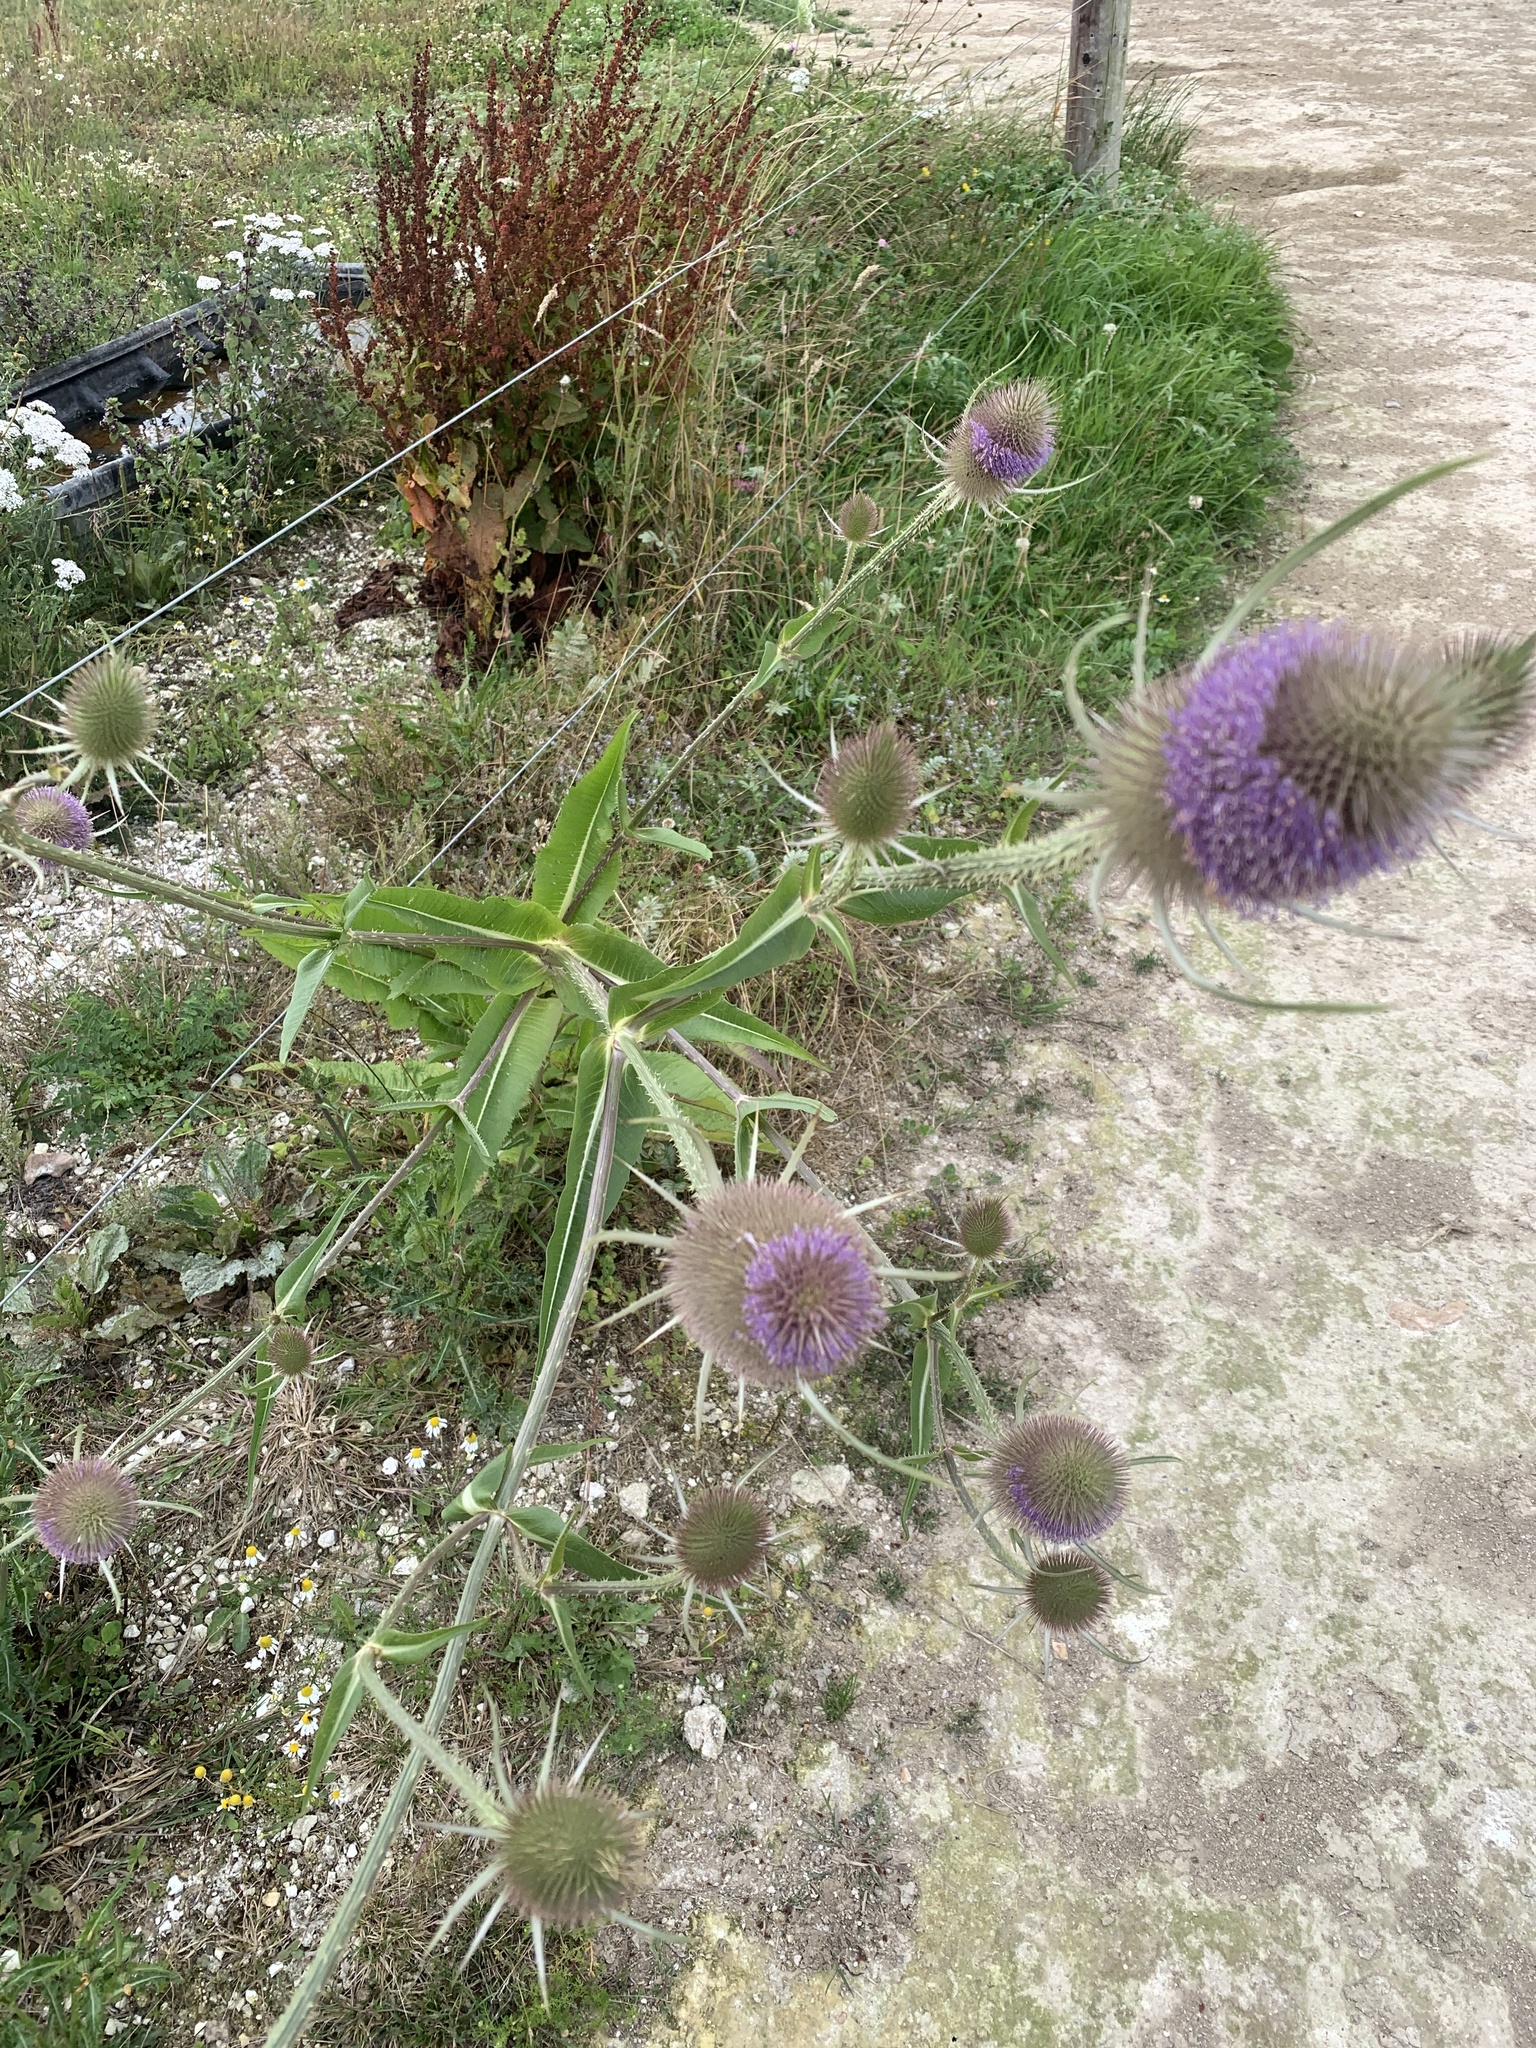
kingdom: Plantae
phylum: Tracheophyta
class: Magnoliopsida
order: Dipsacales
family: Caprifoliaceae
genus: Dipsacus
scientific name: Dipsacus fullonum
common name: Teasel
